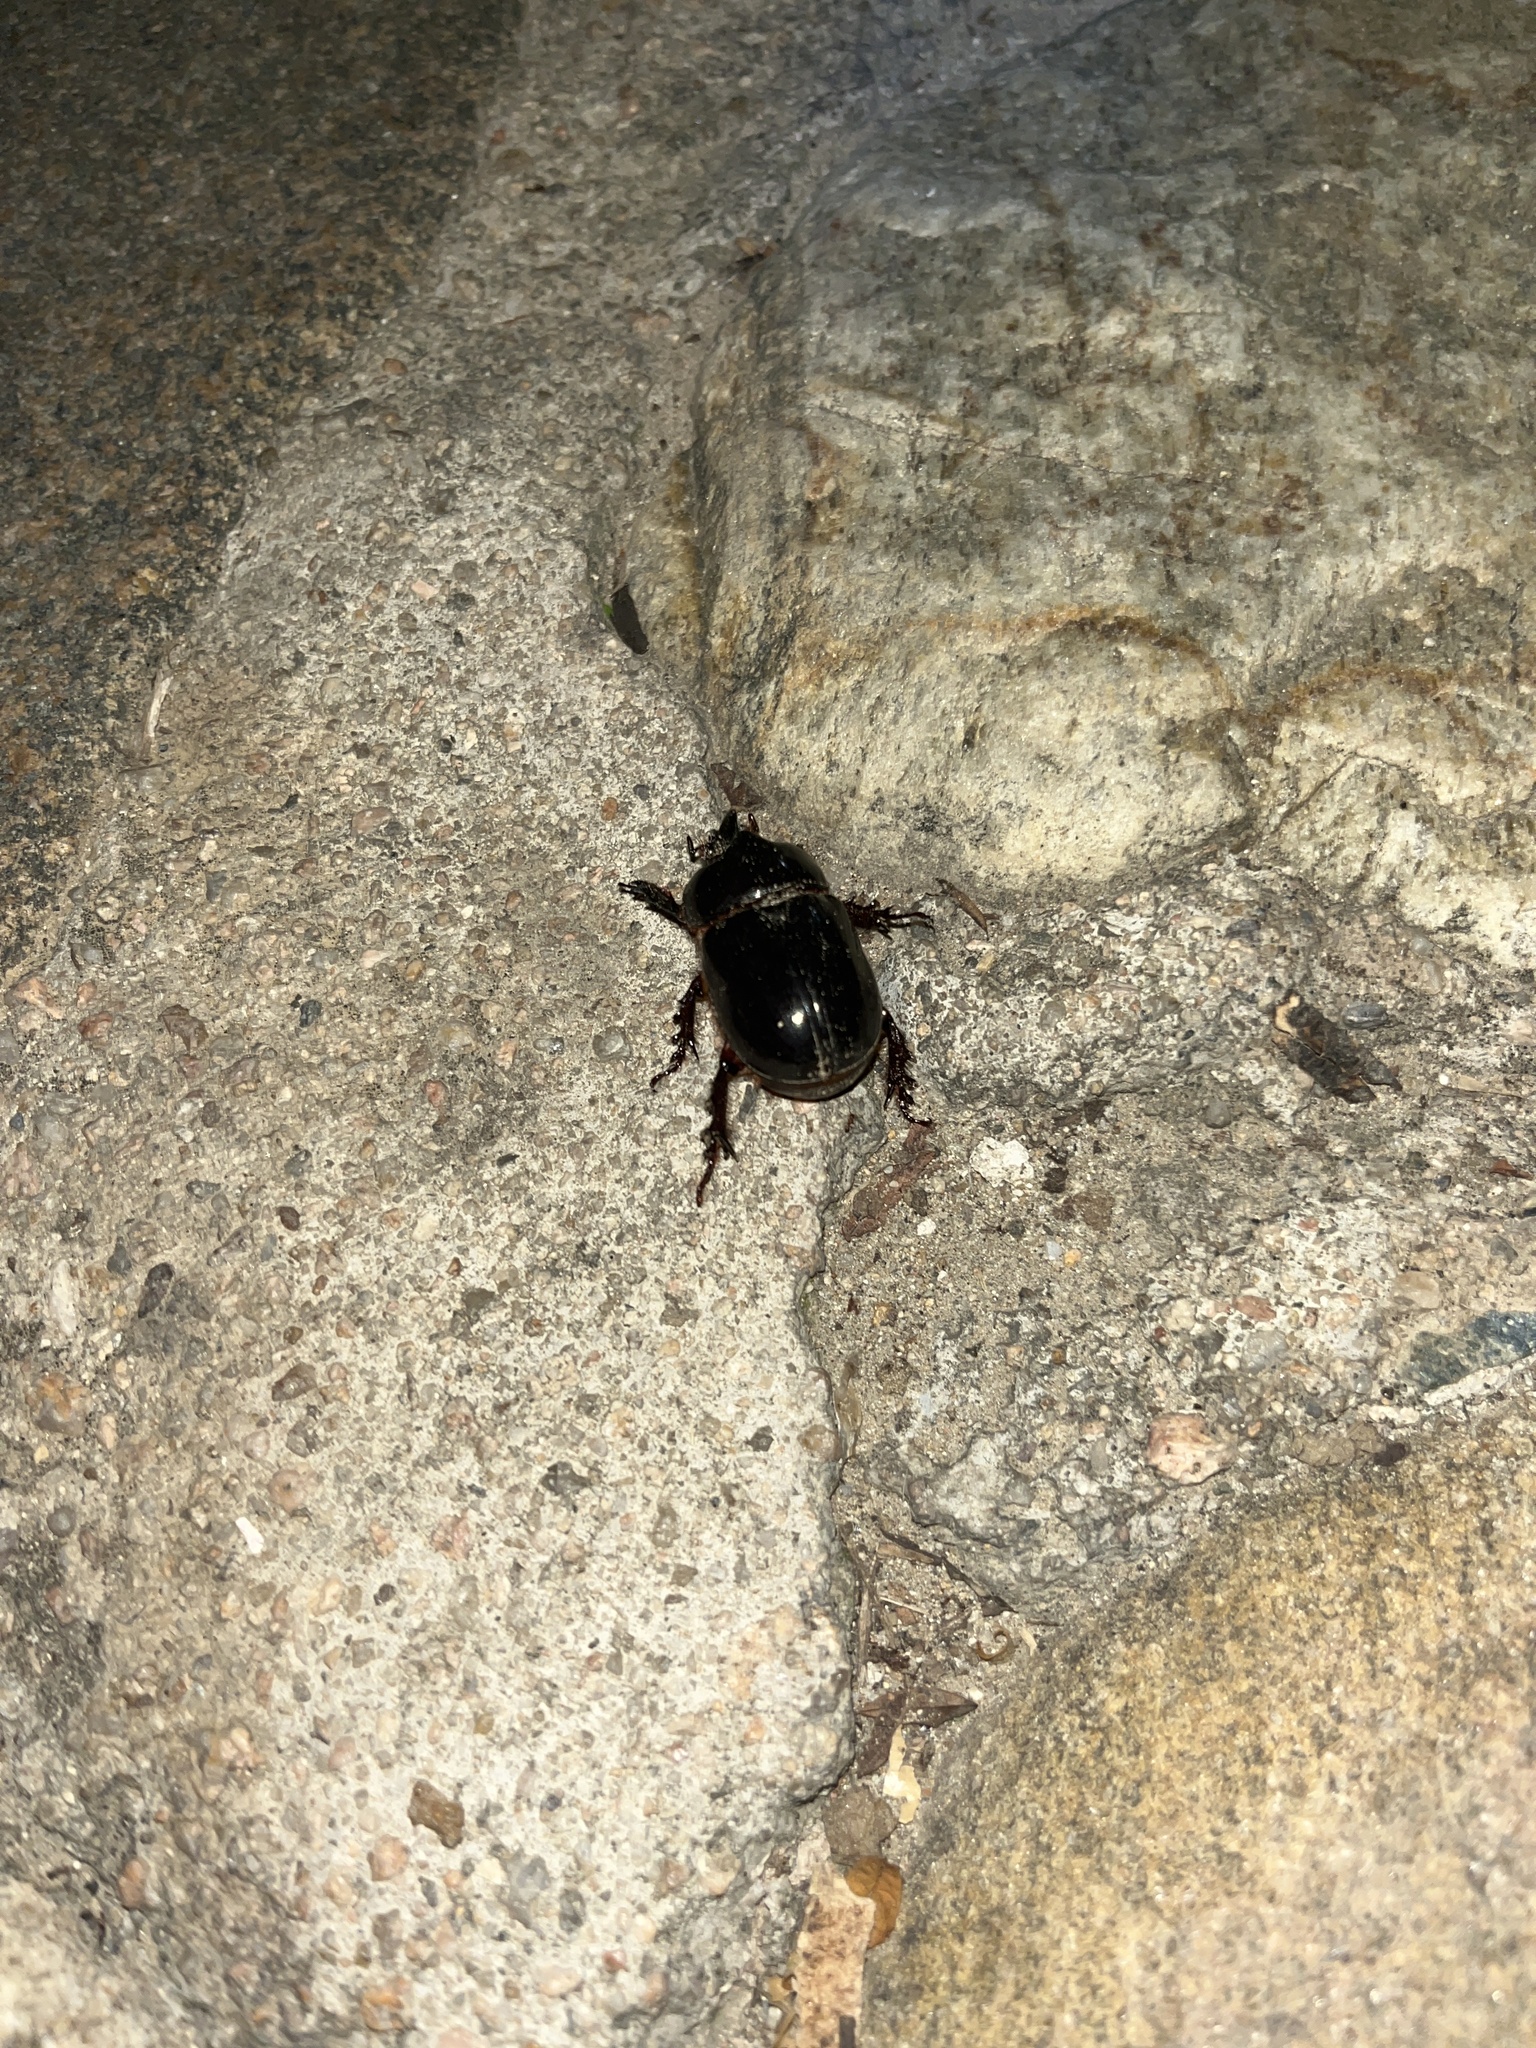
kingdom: Animalia
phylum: Arthropoda
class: Insecta
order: Coleoptera
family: Scarabaeidae
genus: Xyloryctes
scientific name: Xyloryctes thestalus
